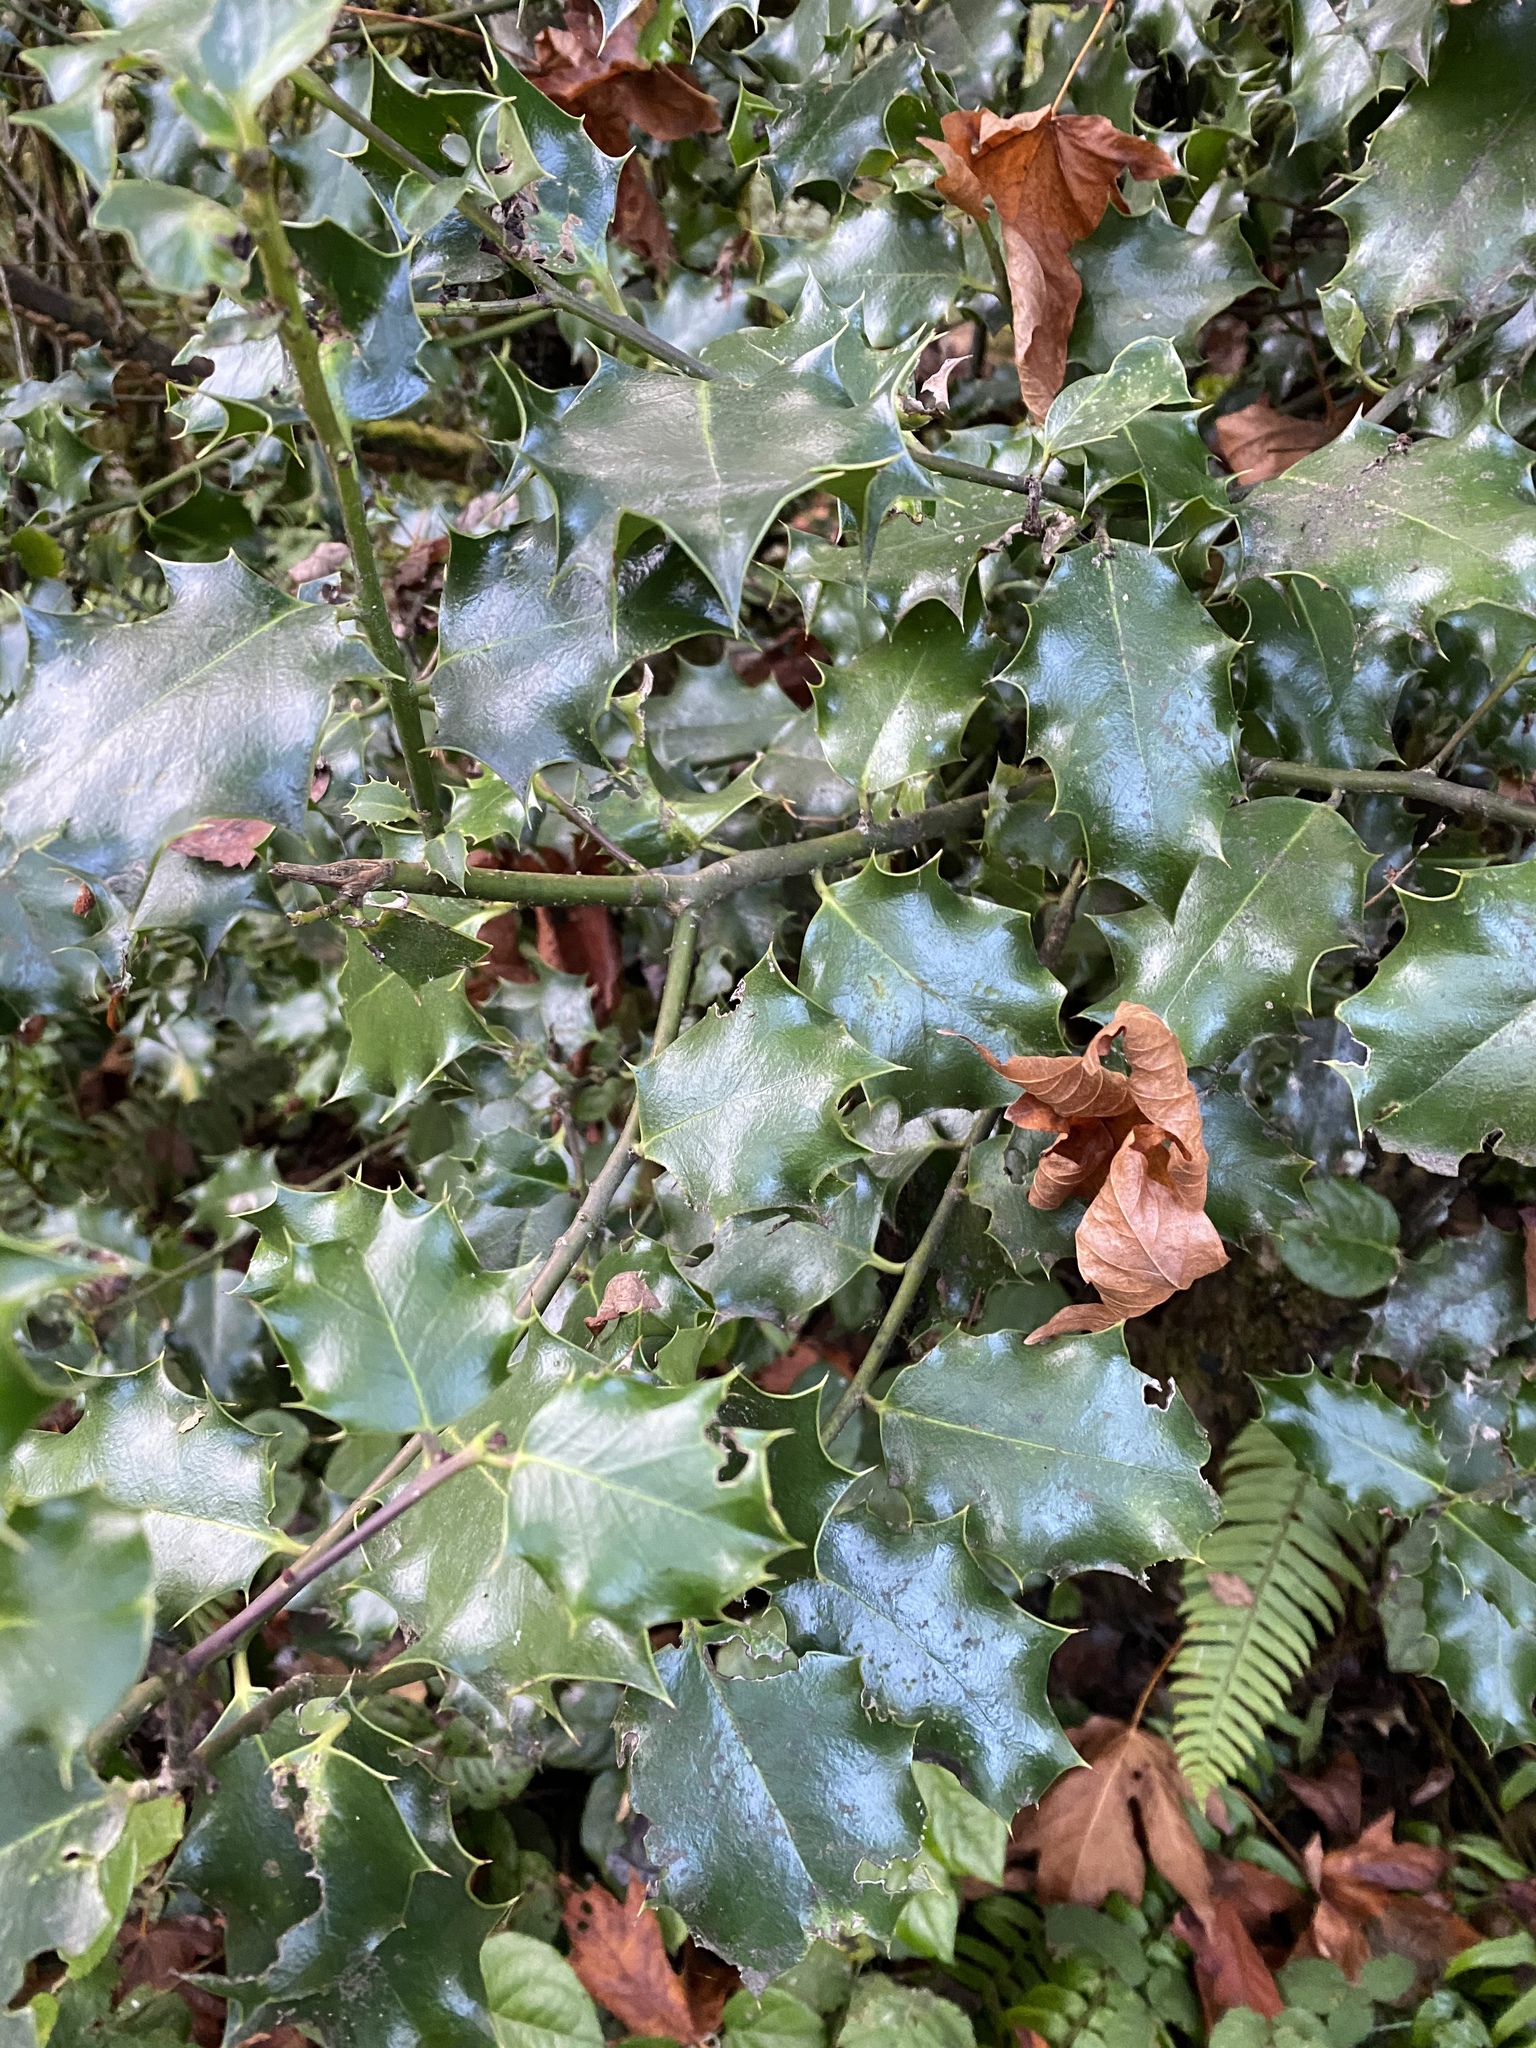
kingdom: Plantae
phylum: Tracheophyta
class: Magnoliopsida
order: Aquifoliales
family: Aquifoliaceae
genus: Ilex
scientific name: Ilex aquifolium
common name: English holly
